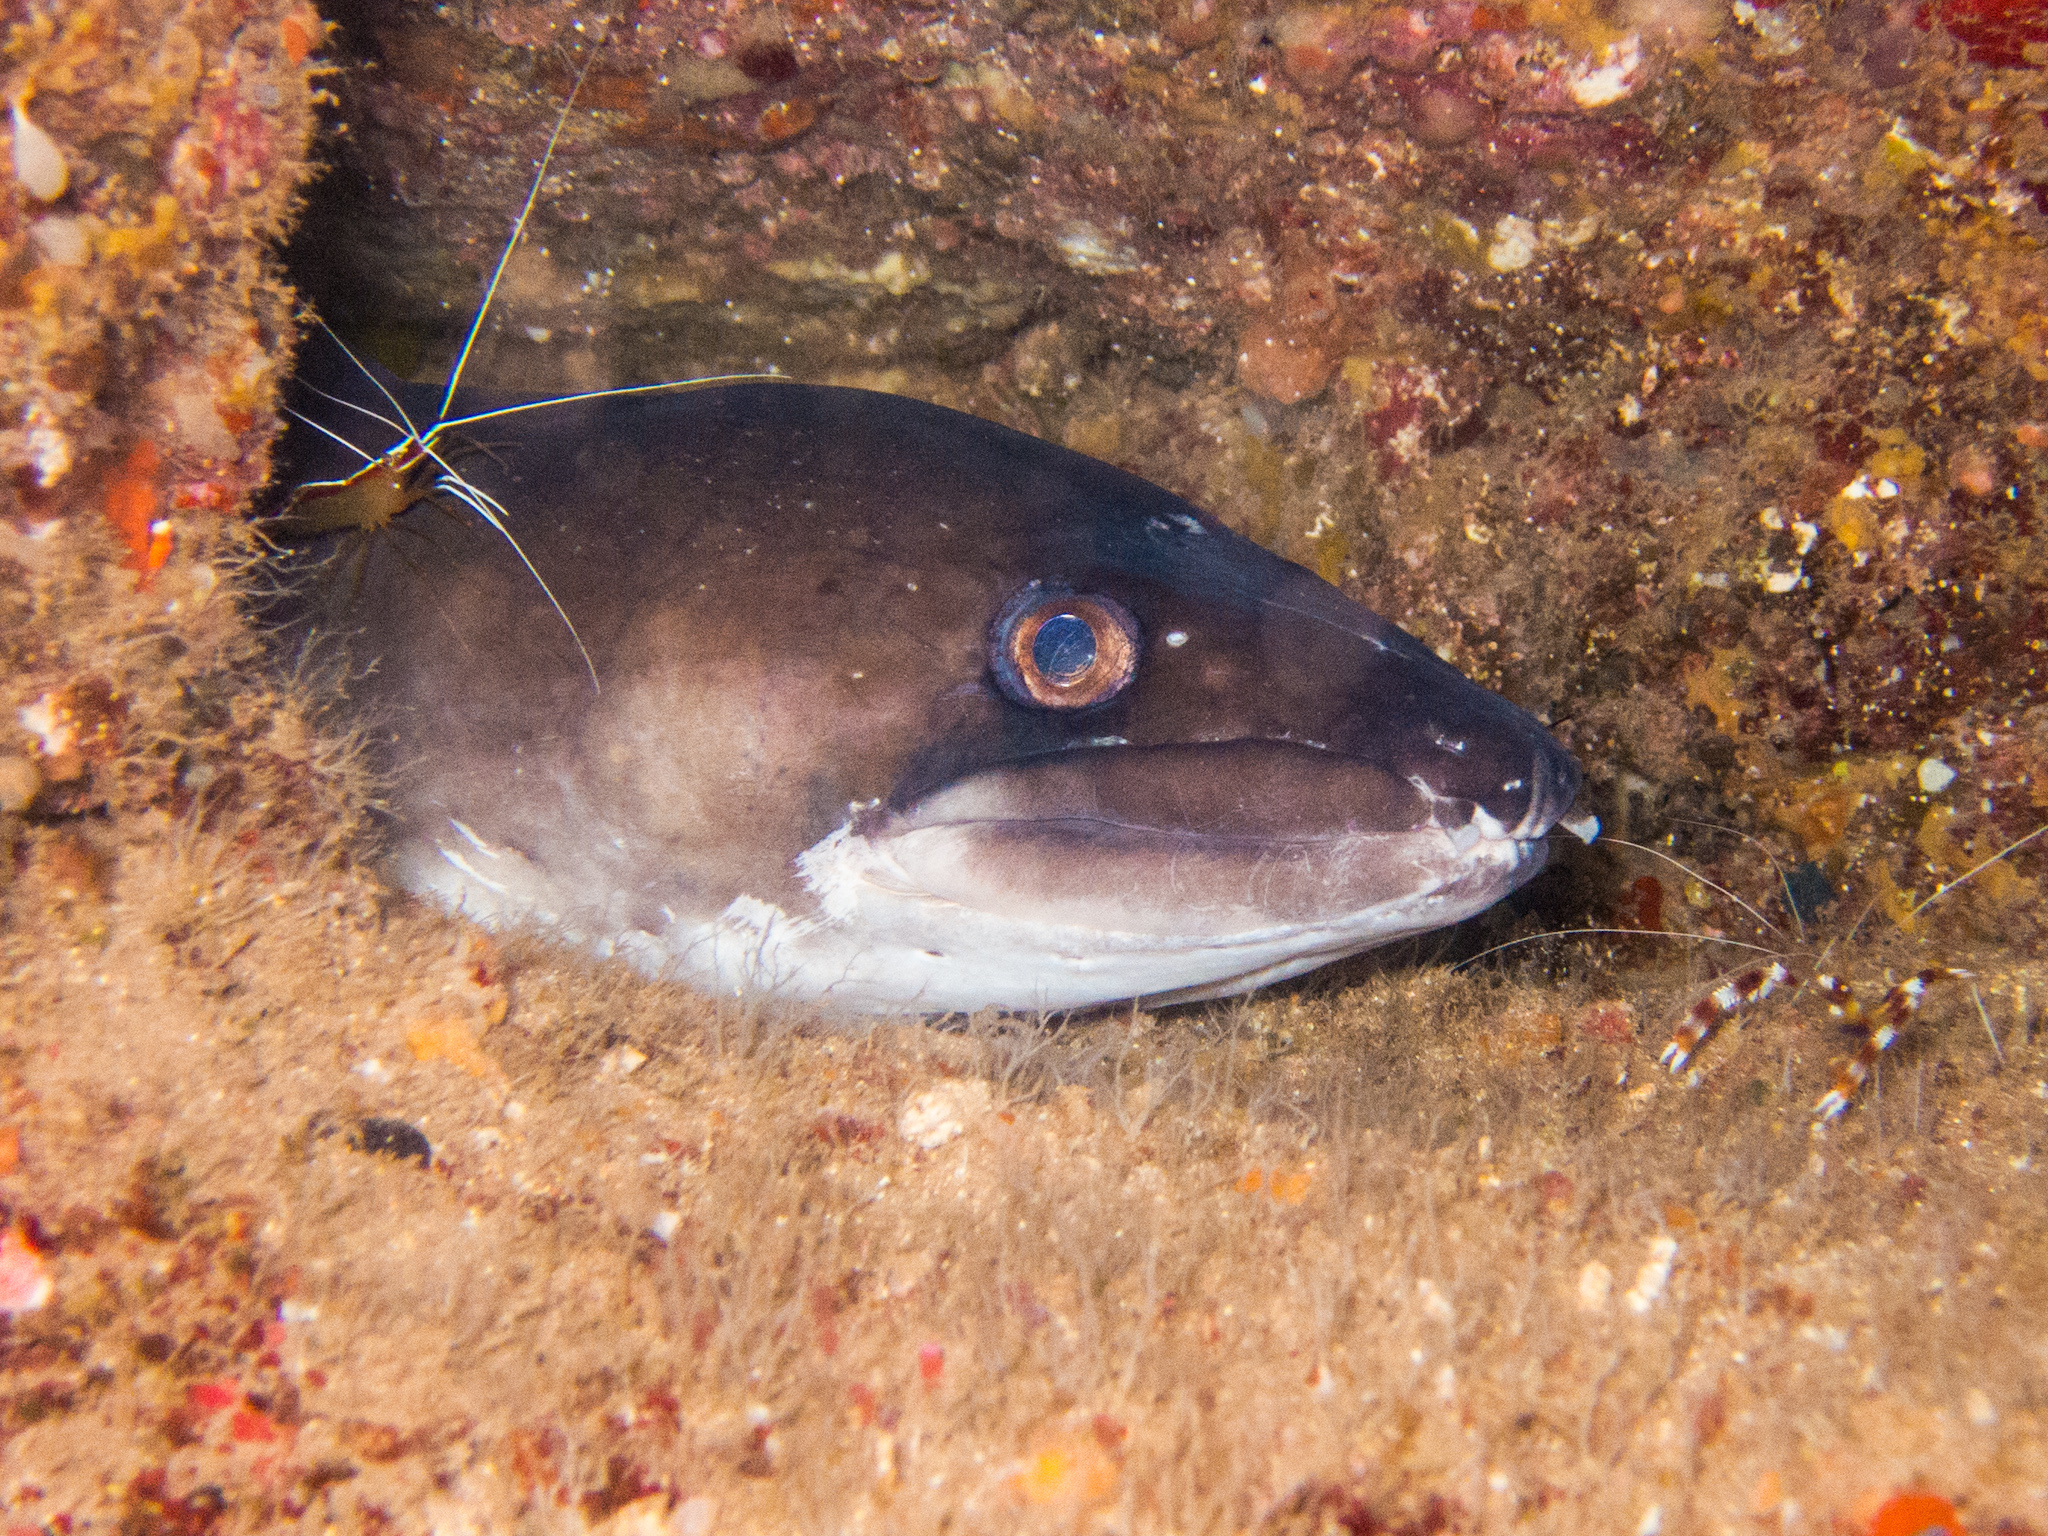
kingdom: Animalia
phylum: Chordata
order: Anguilliformes
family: Congridae
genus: Conger
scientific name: Conger marginatus
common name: Ash-colored conger eel
